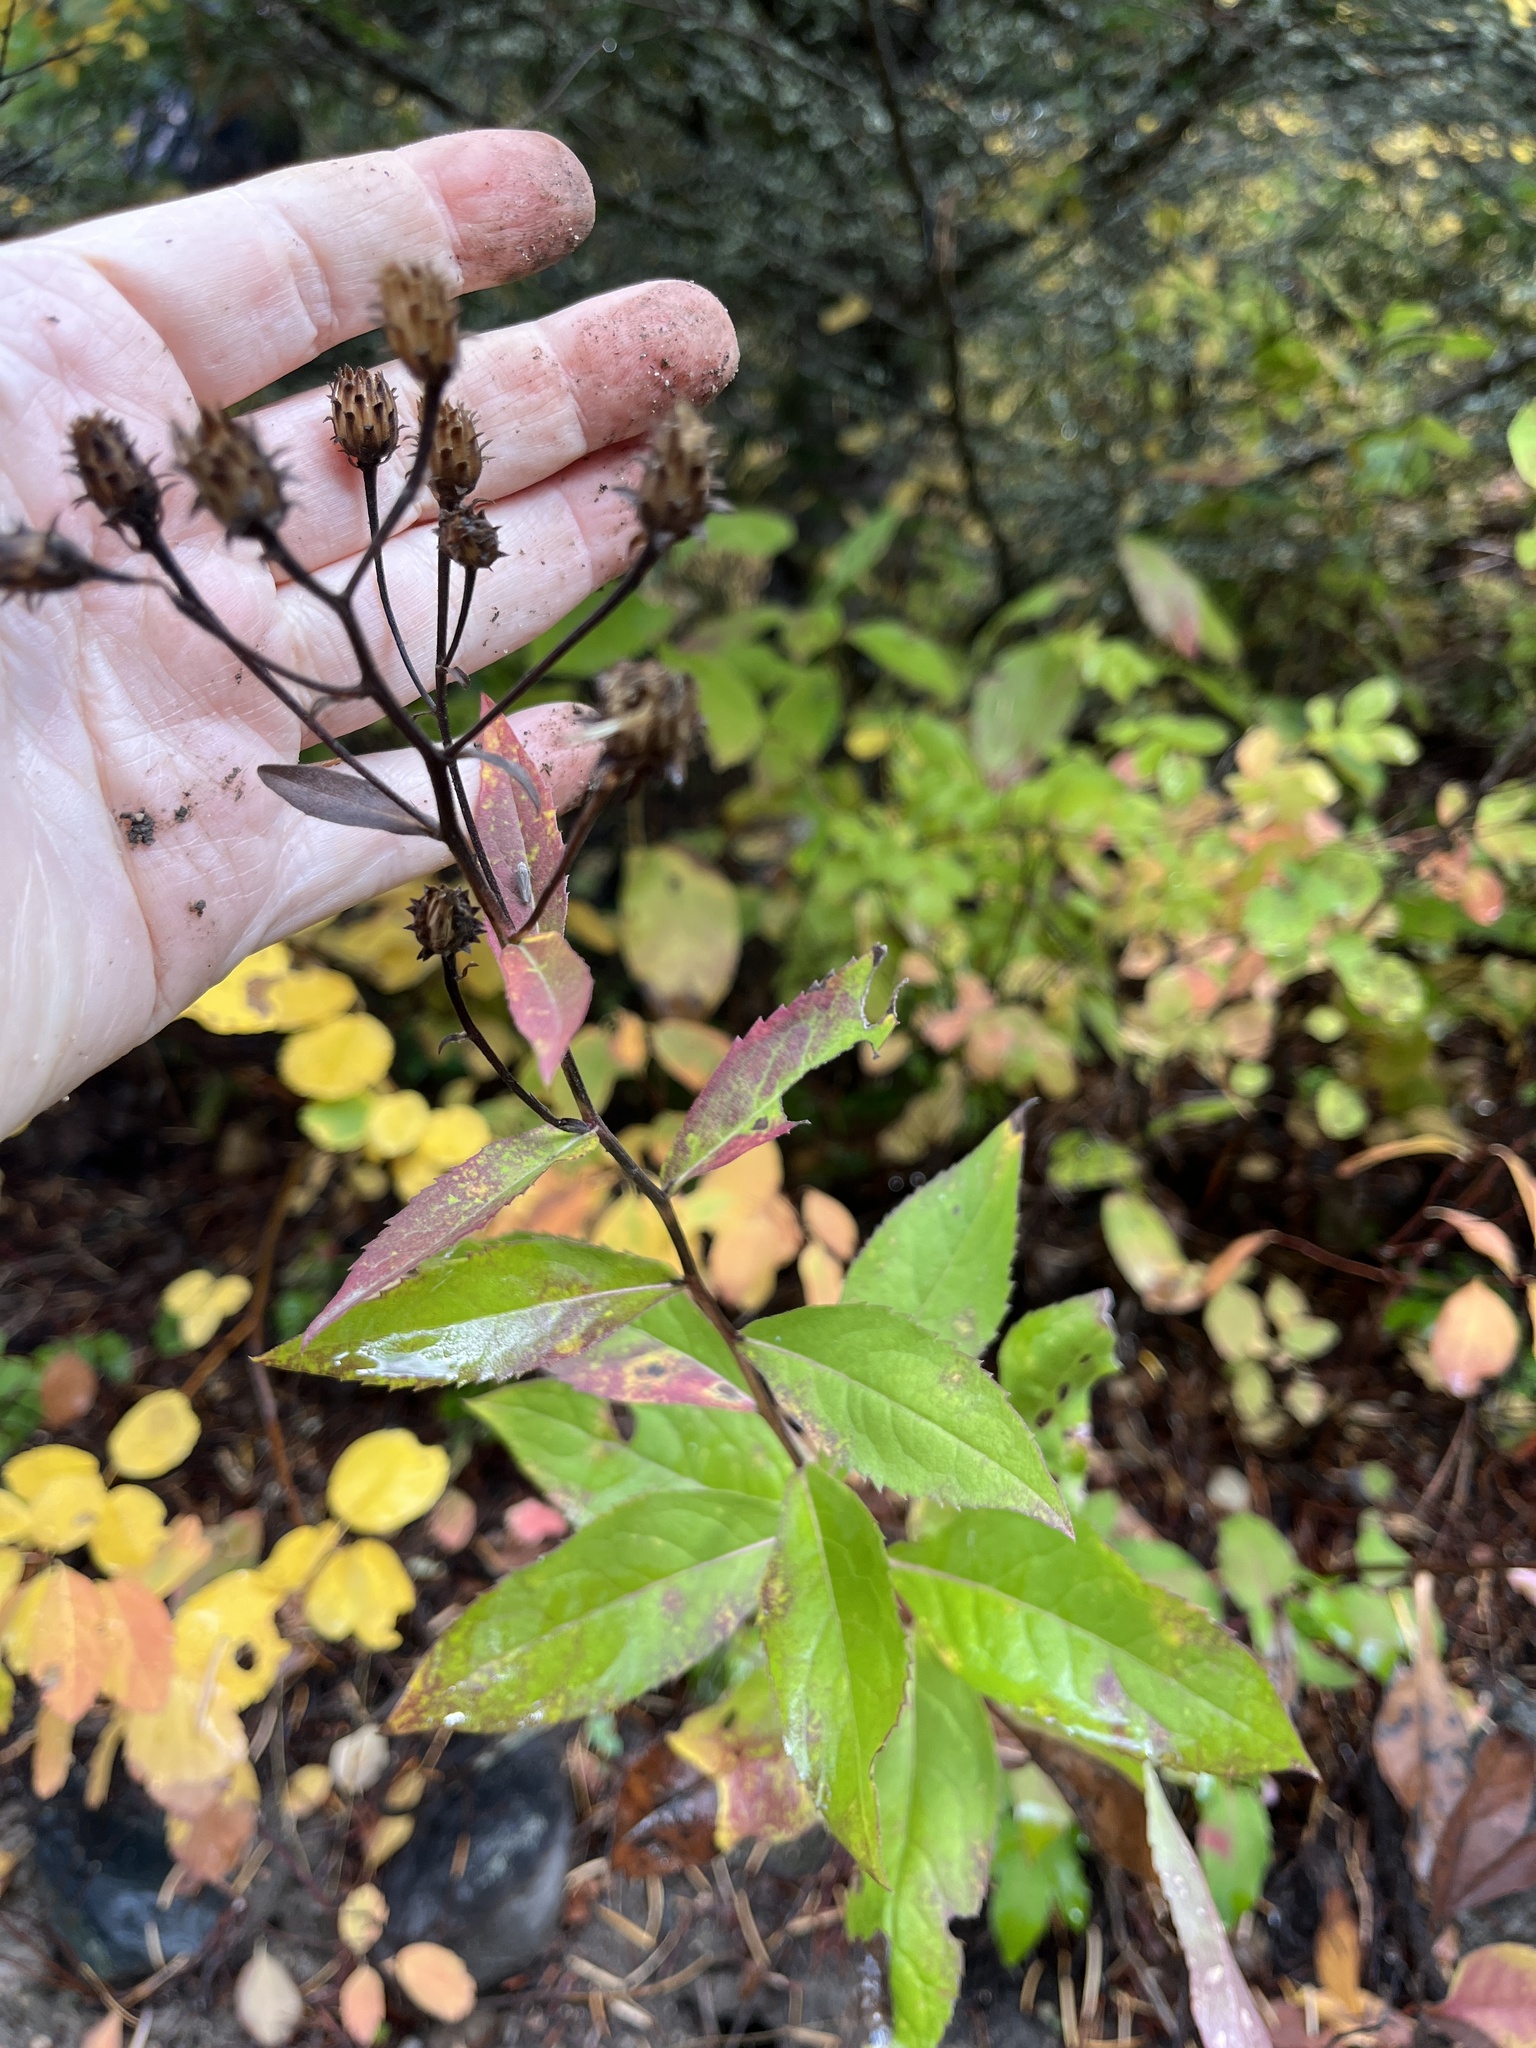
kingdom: Plantae
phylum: Tracheophyta
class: Magnoliopsida
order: Asterales
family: Asteraceae
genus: Eurybia
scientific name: Eurybia conspicua
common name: Showy aster
